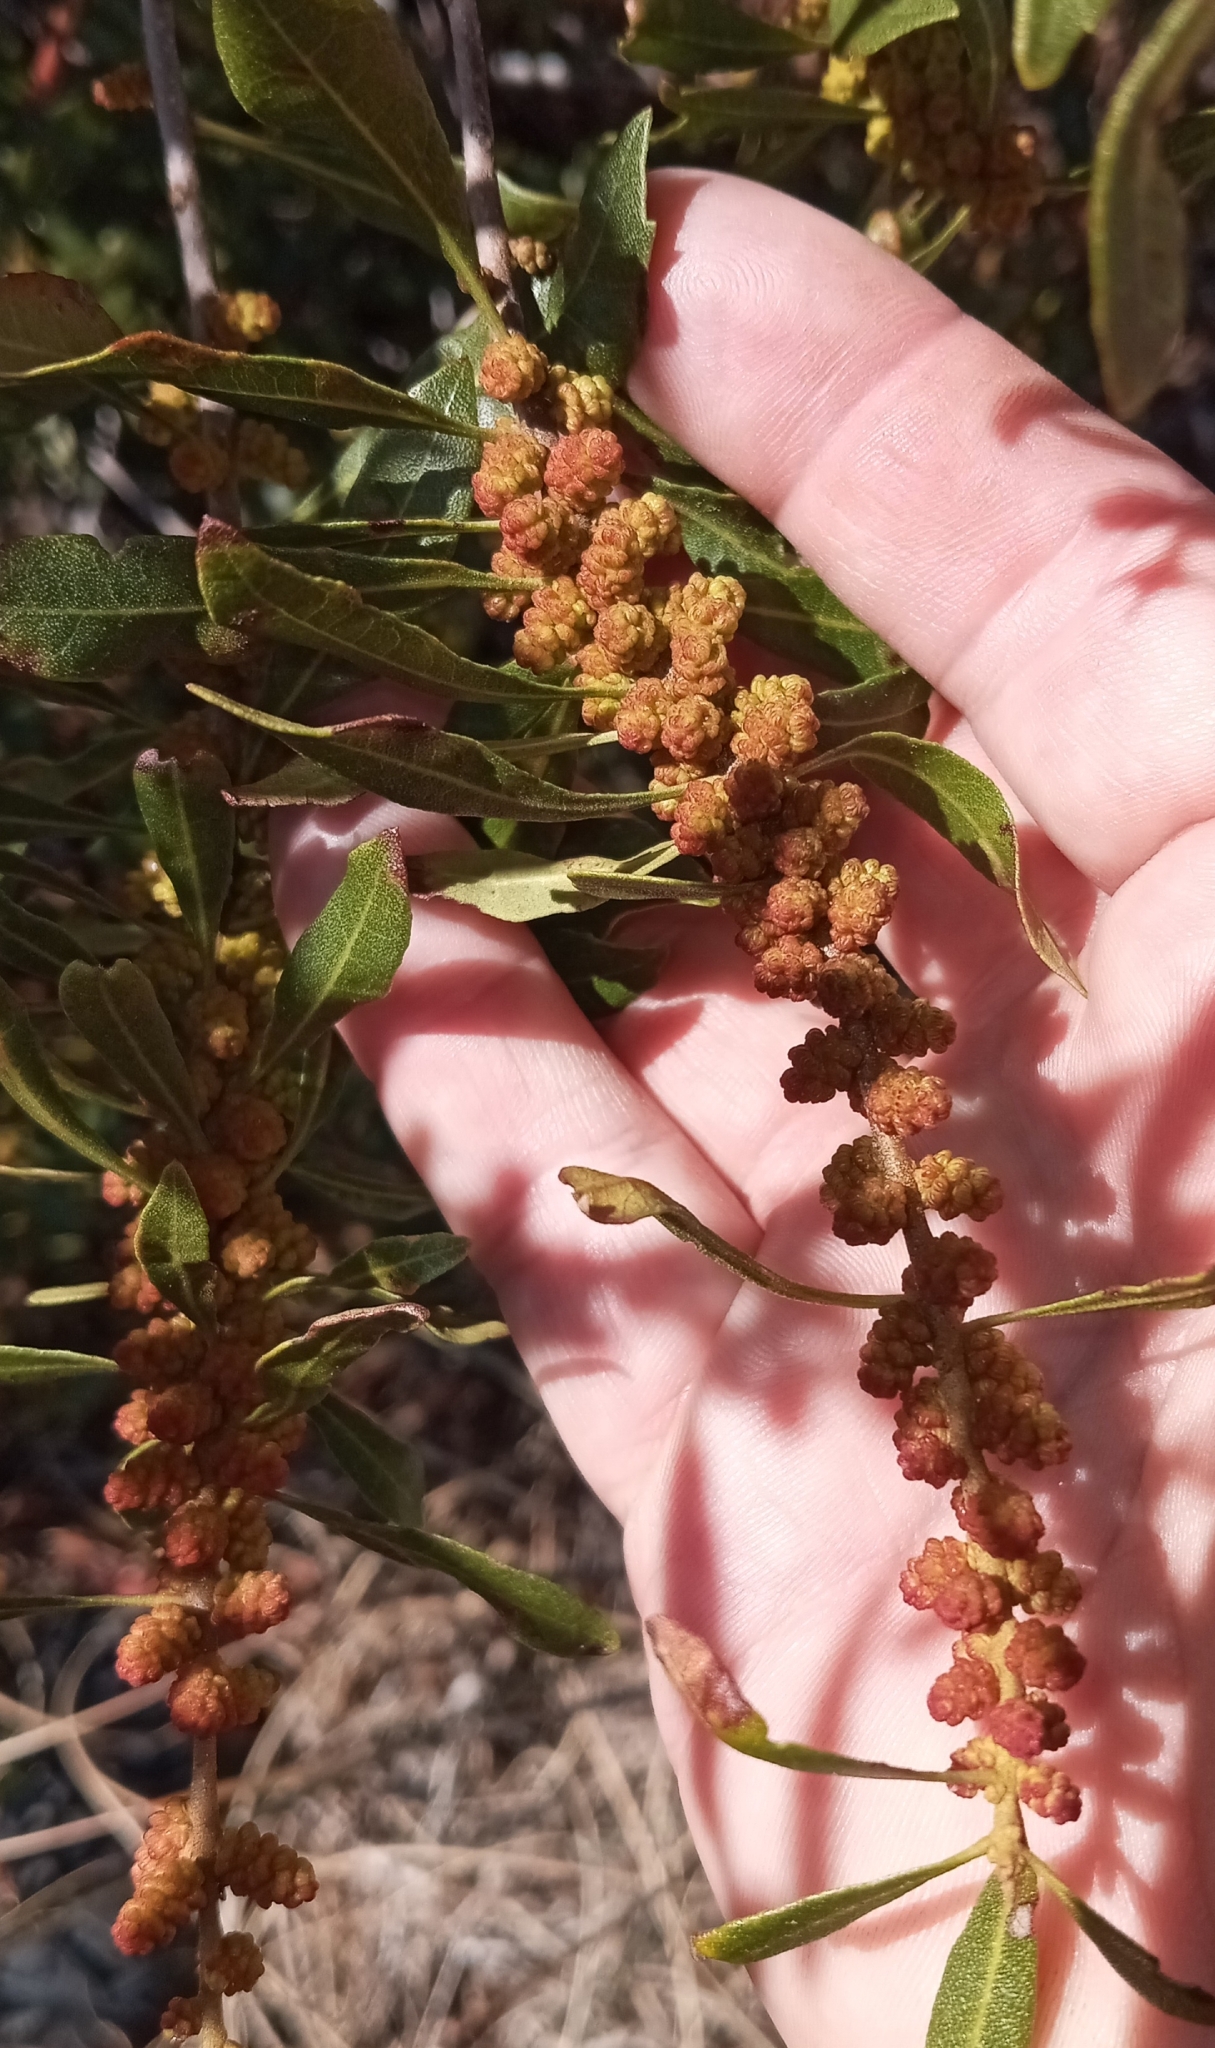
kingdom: Plantae
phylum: Tracheophyta
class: Magnoliopsida
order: Fagales
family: Myricaceae
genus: Morella
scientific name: Morella cerifera
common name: Wax myrtle
